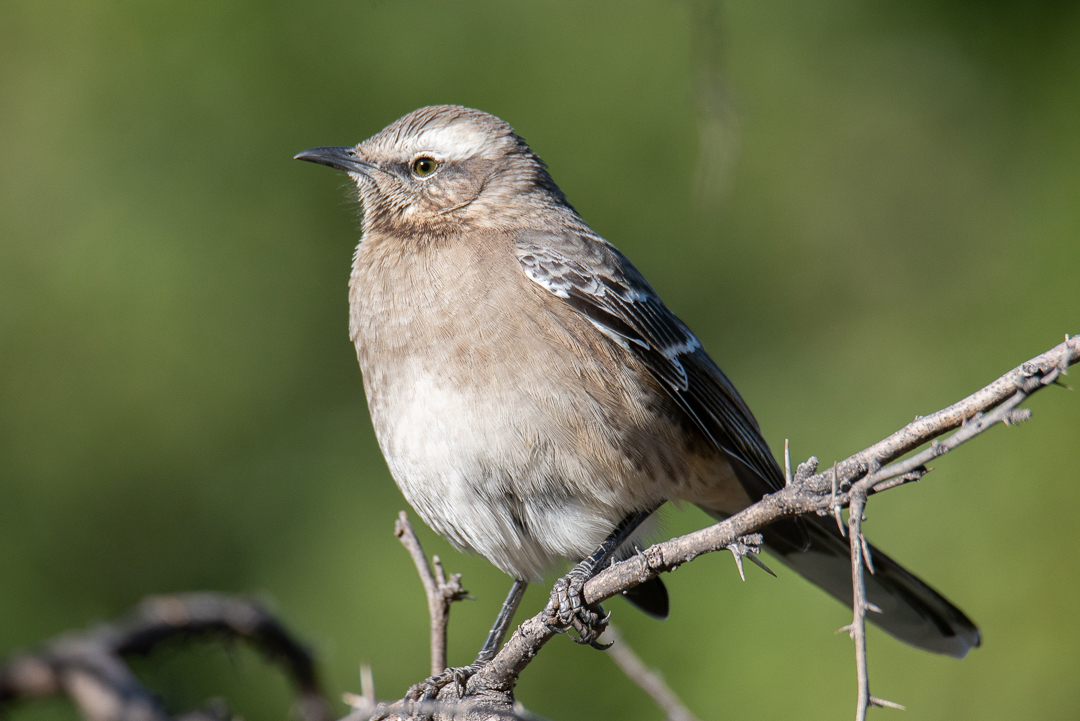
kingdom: Animalia
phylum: Chordata
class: Aves
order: Passeriformes
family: Mimidae
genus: Mimus
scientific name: Mimus thenca
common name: Chilean mockingbird
